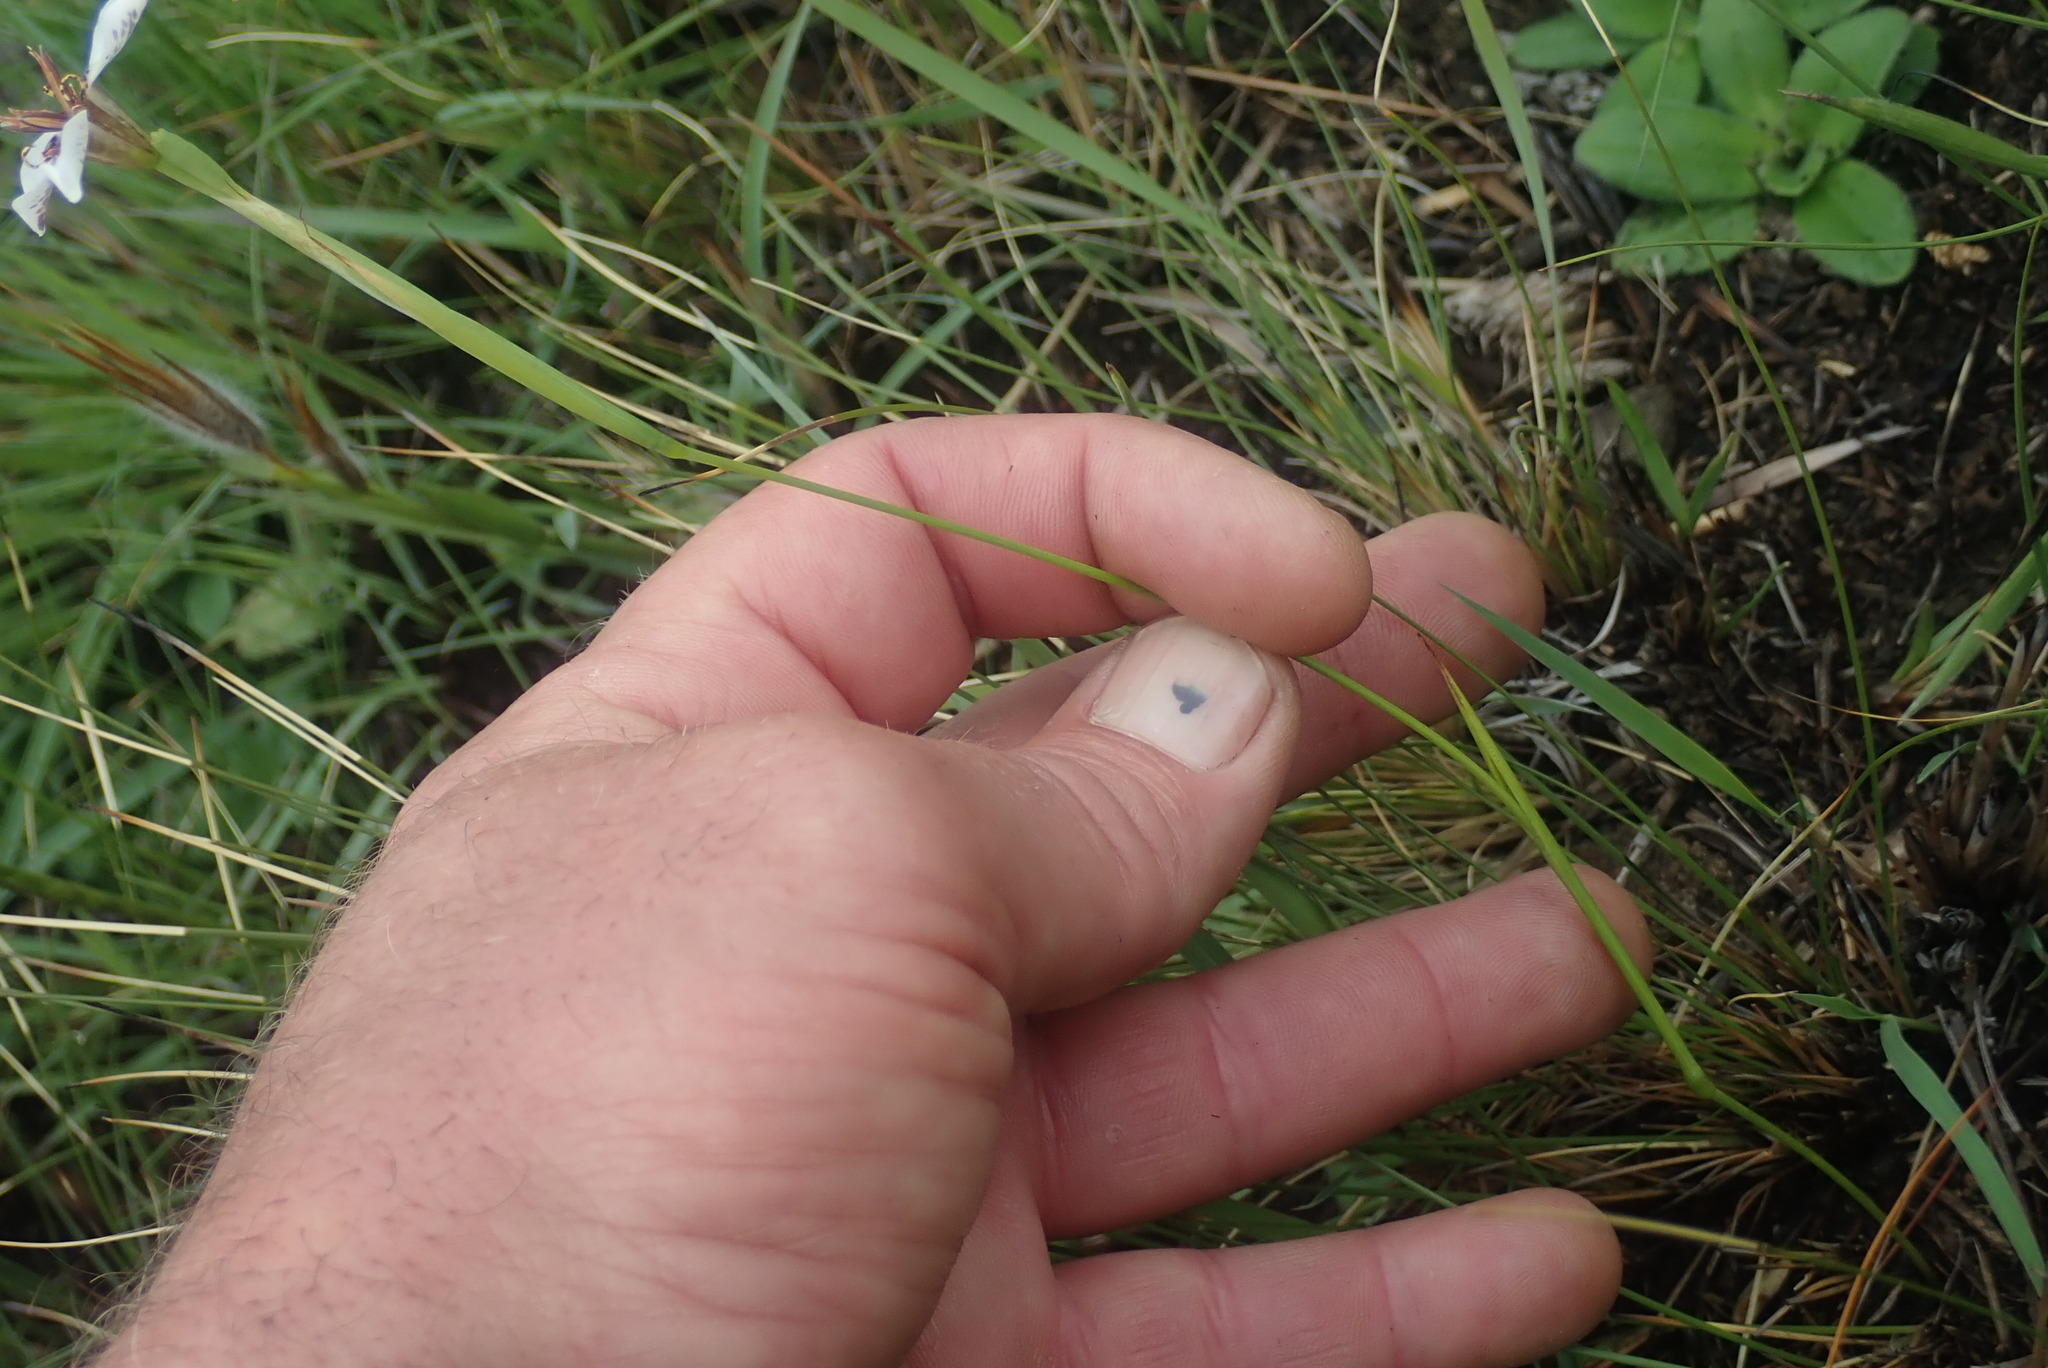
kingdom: Plantae
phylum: Tracheophyta
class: Liliopsida
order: Asparagales
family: Iridaceae
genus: Moraea
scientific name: Moraea marionae
